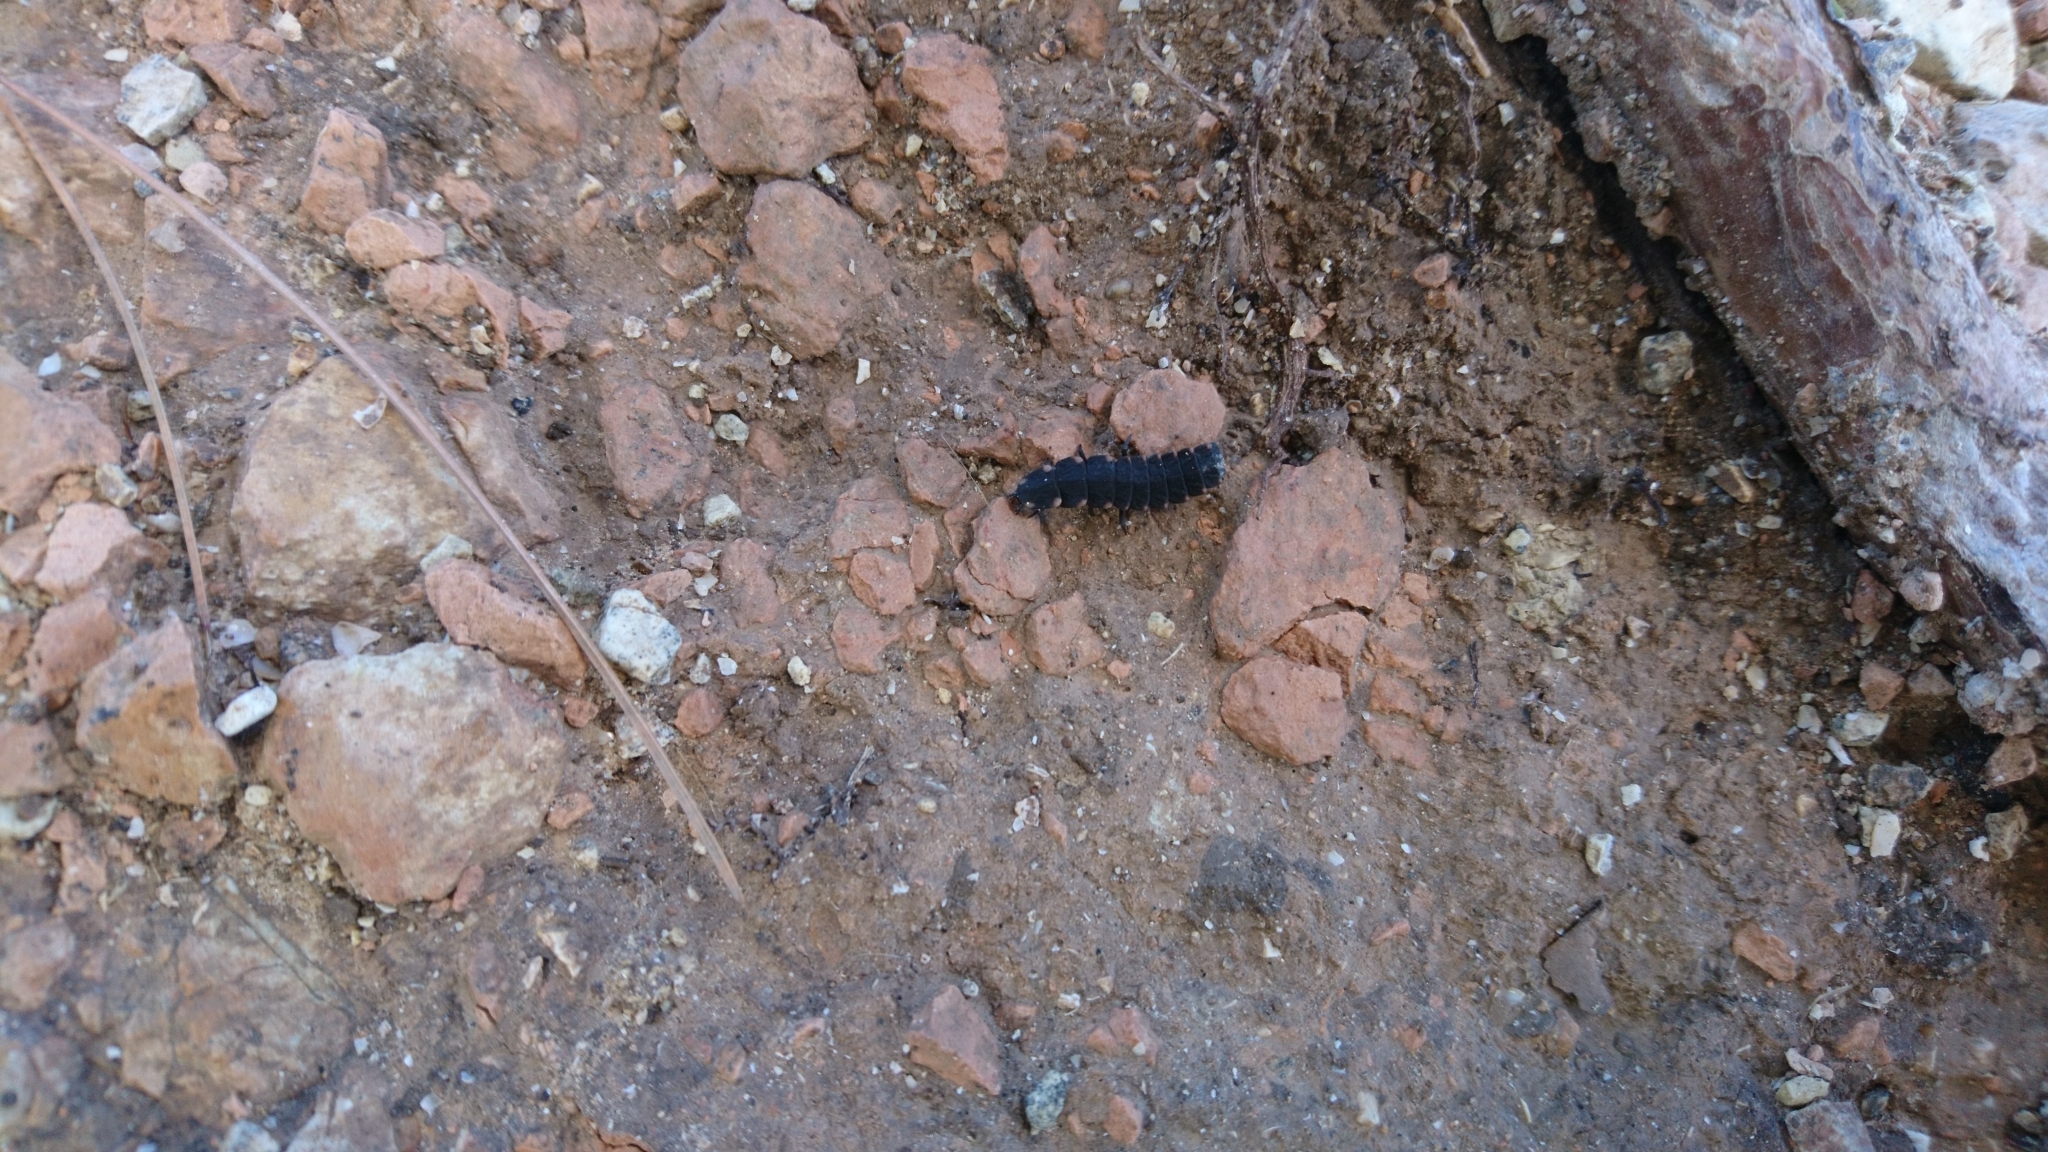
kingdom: Animalia
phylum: Arthropoda
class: Insecta
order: Coleoptera
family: Lampyridae
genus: Lampyris
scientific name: Lampyris ambigena
